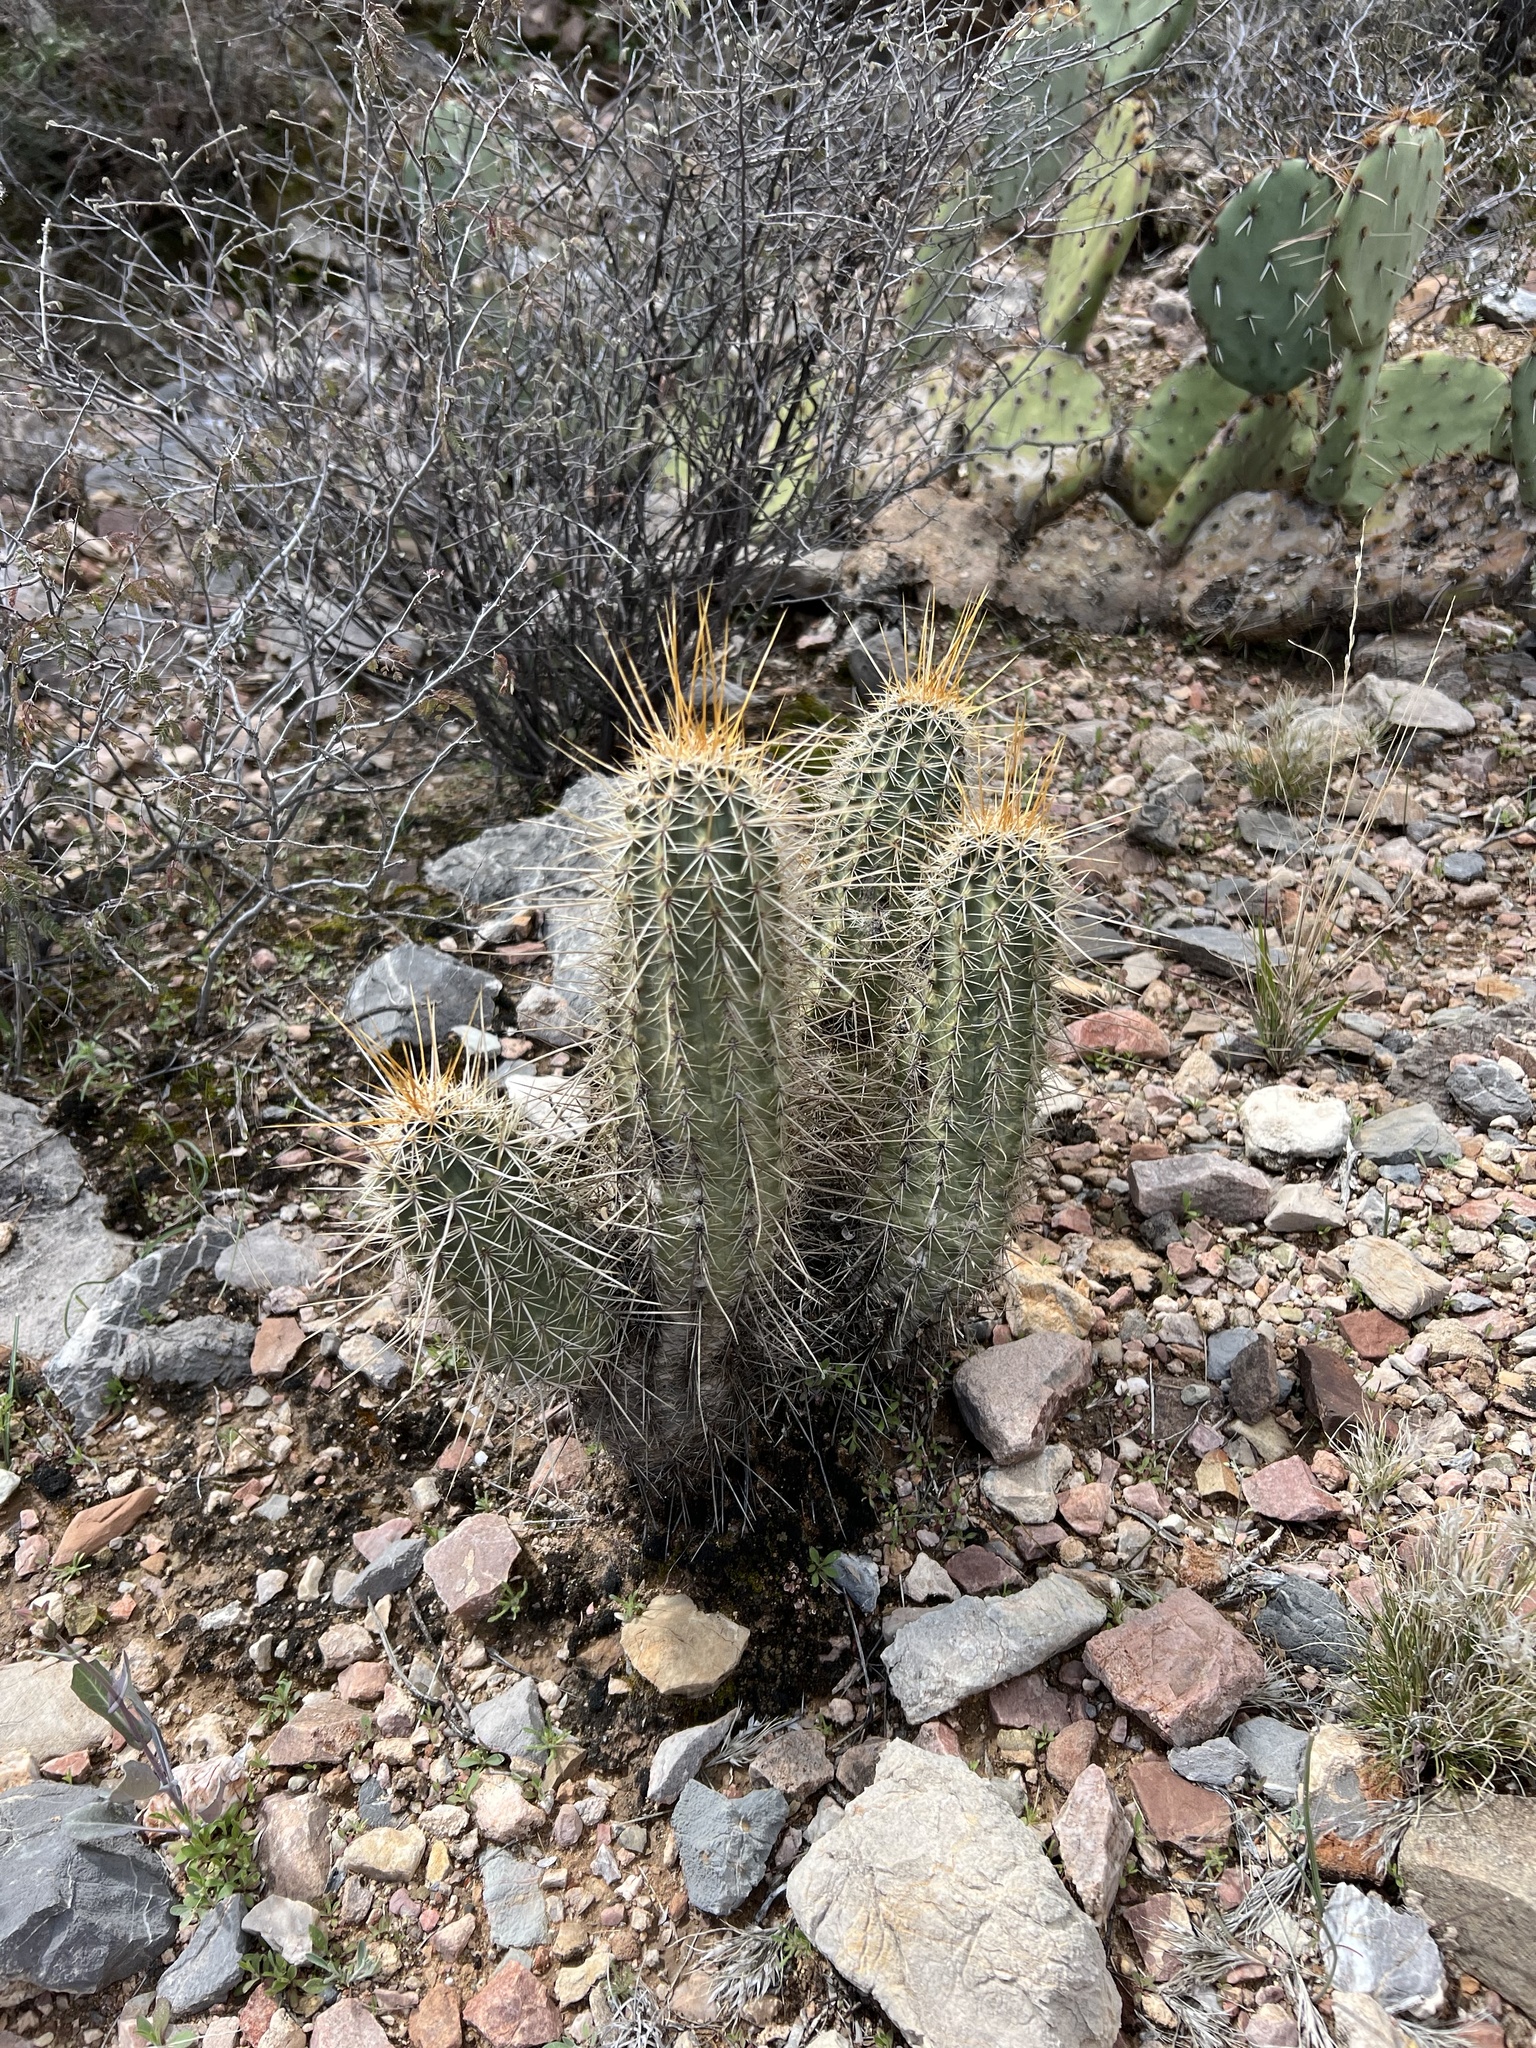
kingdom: Plantae
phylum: Tracheophyta
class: Magnoliopsida
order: Caryophyllales
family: Cactaceae
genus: Echinocereus
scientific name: Echinocereus fasciculatus
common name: Bundle hedgehog
